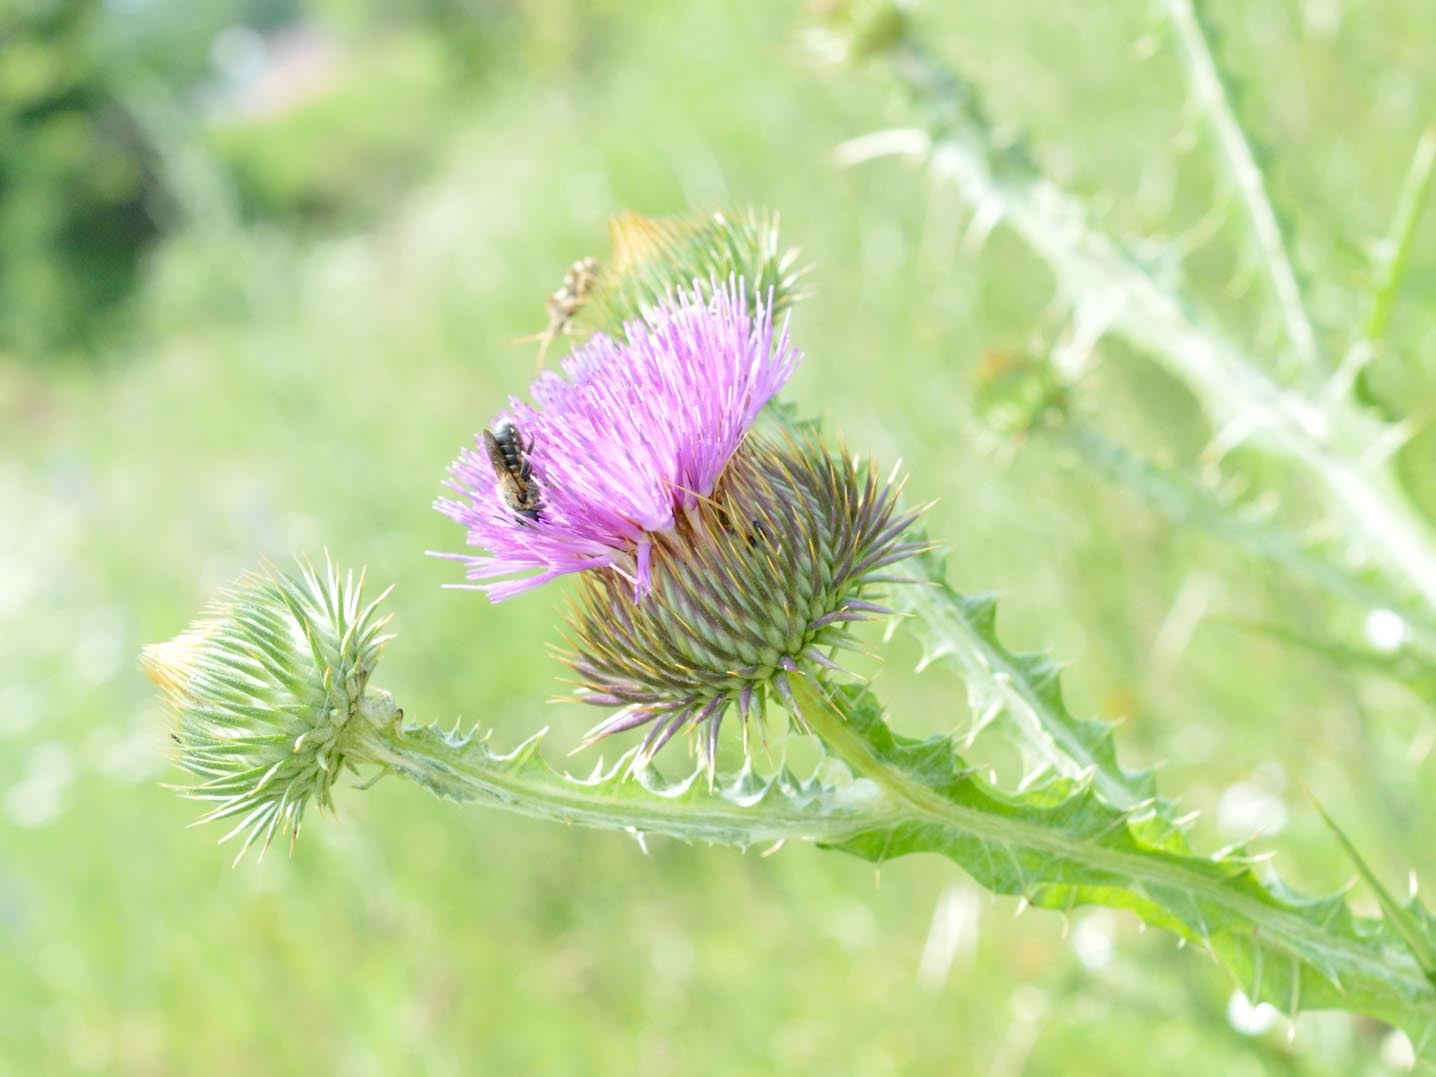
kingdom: Plantae
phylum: Tracheophyta
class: Magnoliopsida
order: Asterales
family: Asteraceae
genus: Onopordum
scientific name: Onopordum acanthium
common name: Scotch thistle
